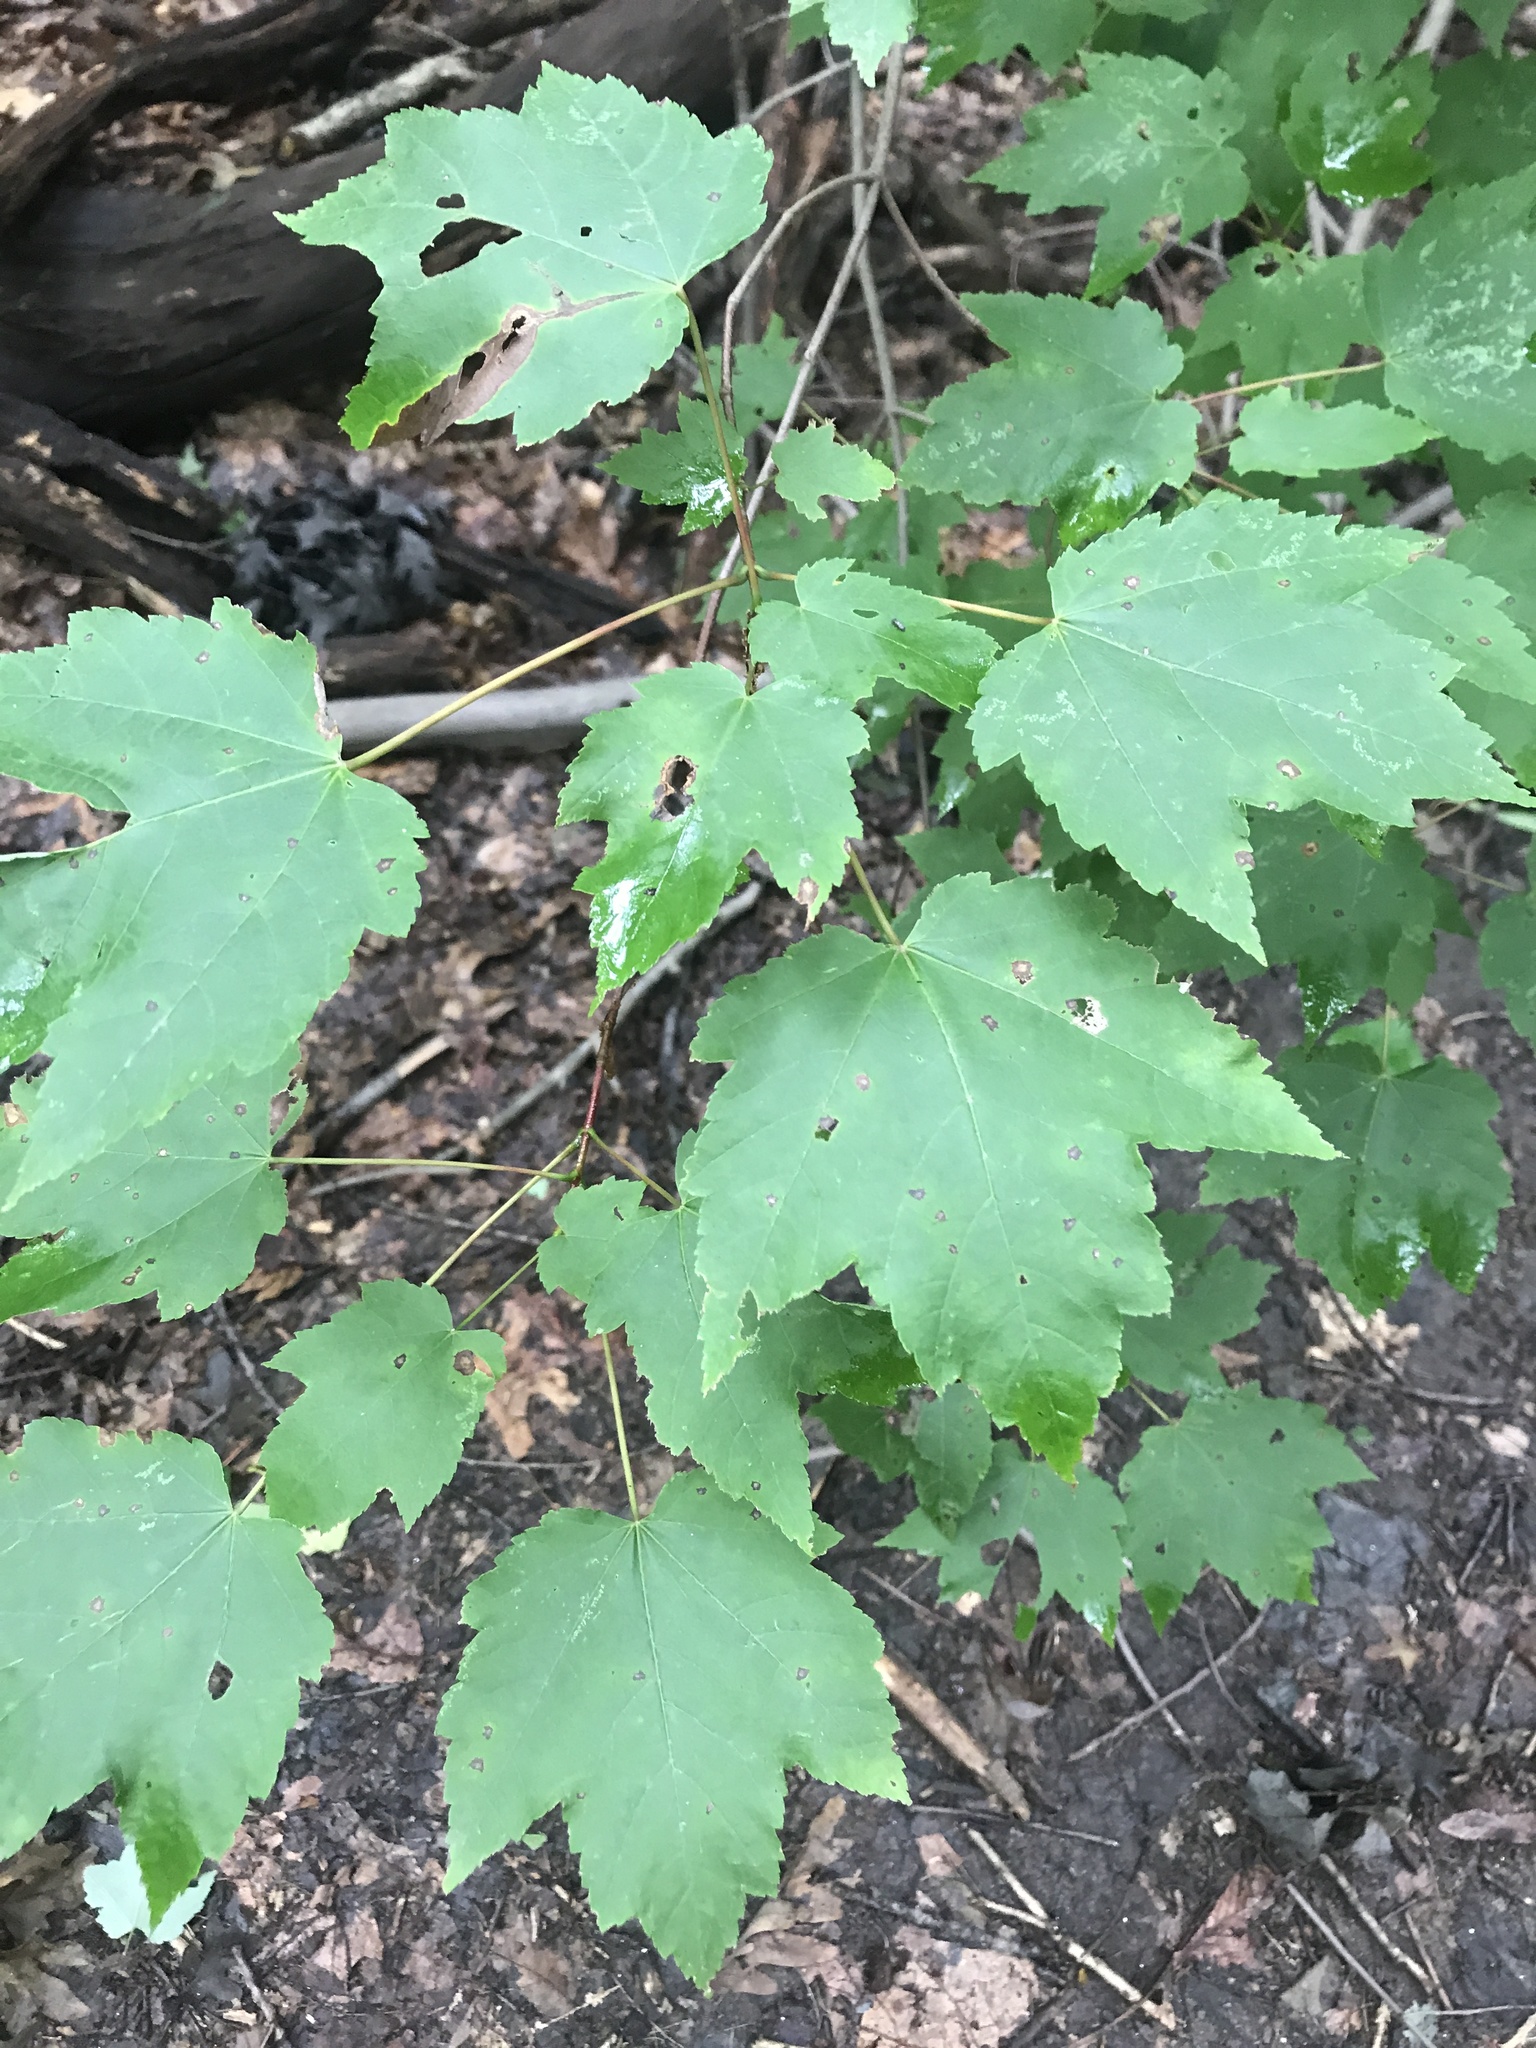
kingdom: Plantae
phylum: Tracheophyta
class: Magnoliopsida
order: Sapindales
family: Sapindaceae
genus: Acer
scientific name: Acer rubrum
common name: Red maple
